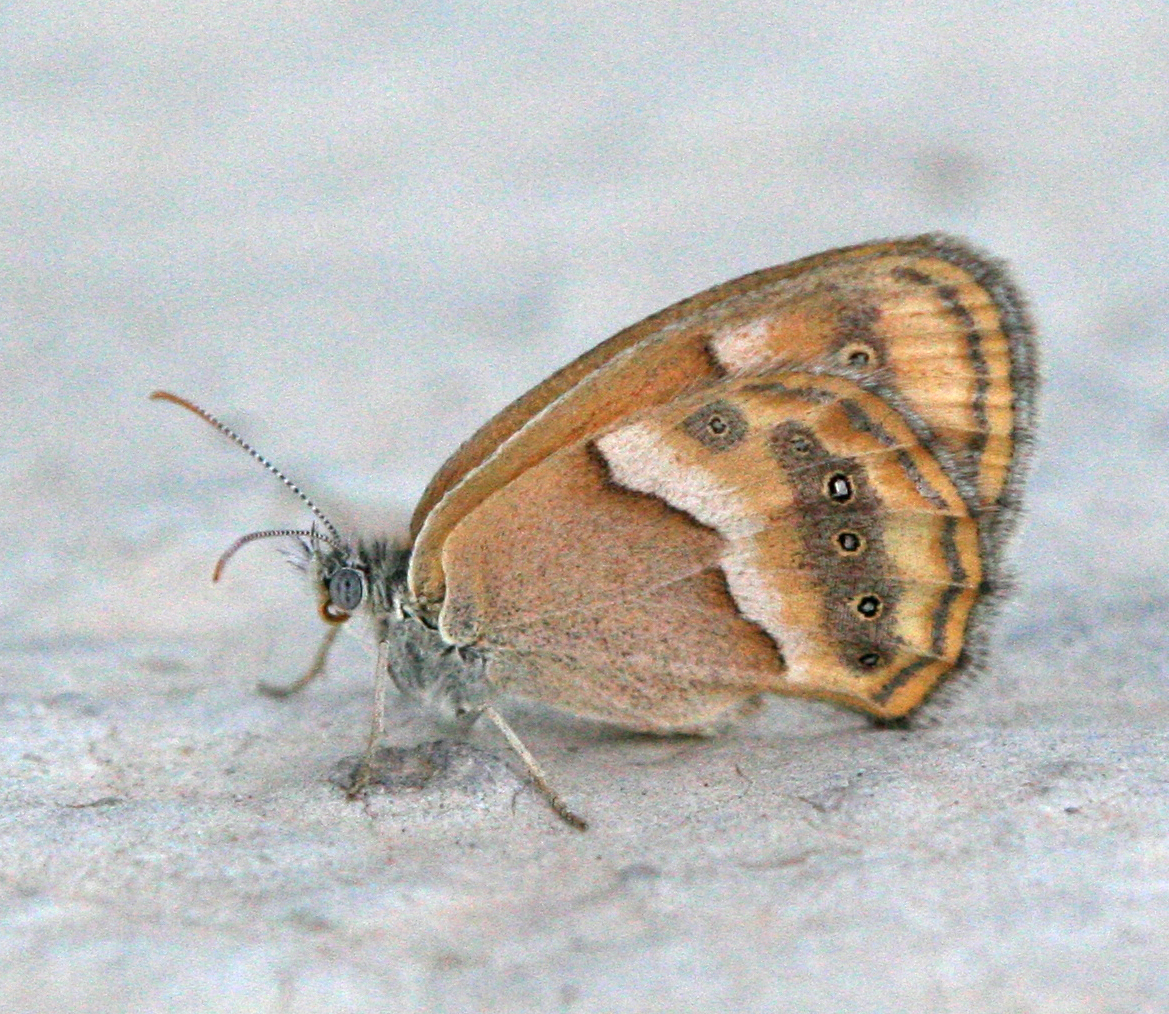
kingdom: Animalia
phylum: Arthropoda
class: Insecta
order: Lepidoptera
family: Nymphalidae
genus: Coenonympha
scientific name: Coenonympha saadi
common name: Small heath
